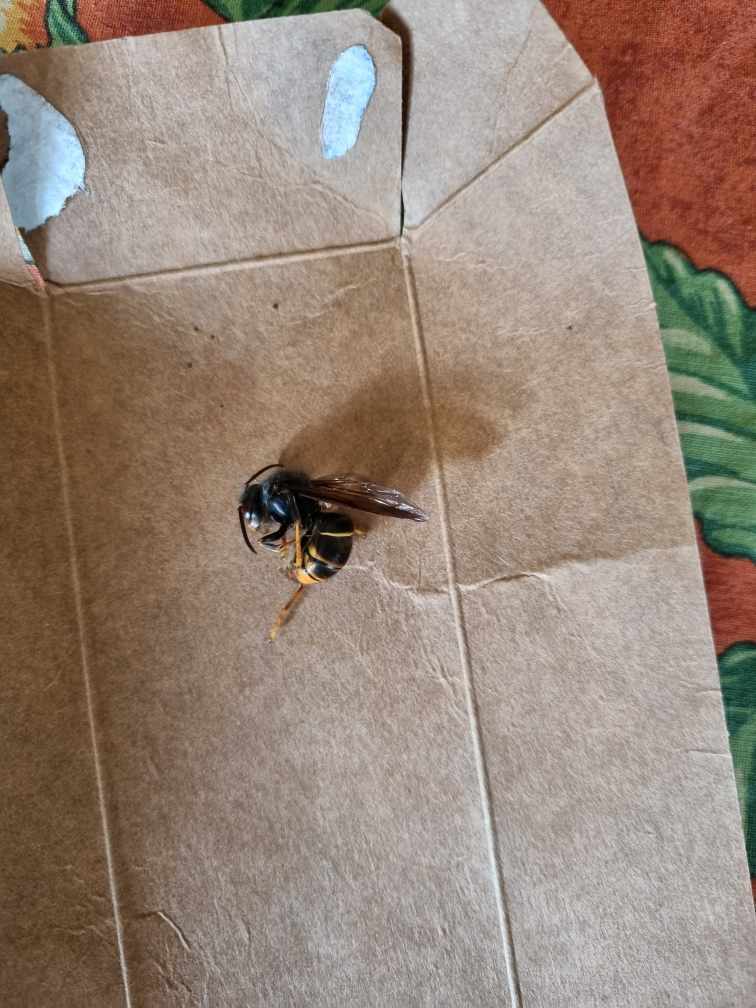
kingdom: Animalia
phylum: Arthropoda
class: Insecta
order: Hymenoptera
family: Vespidae
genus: Vespa
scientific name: Vespa velutina
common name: Asian hornet
